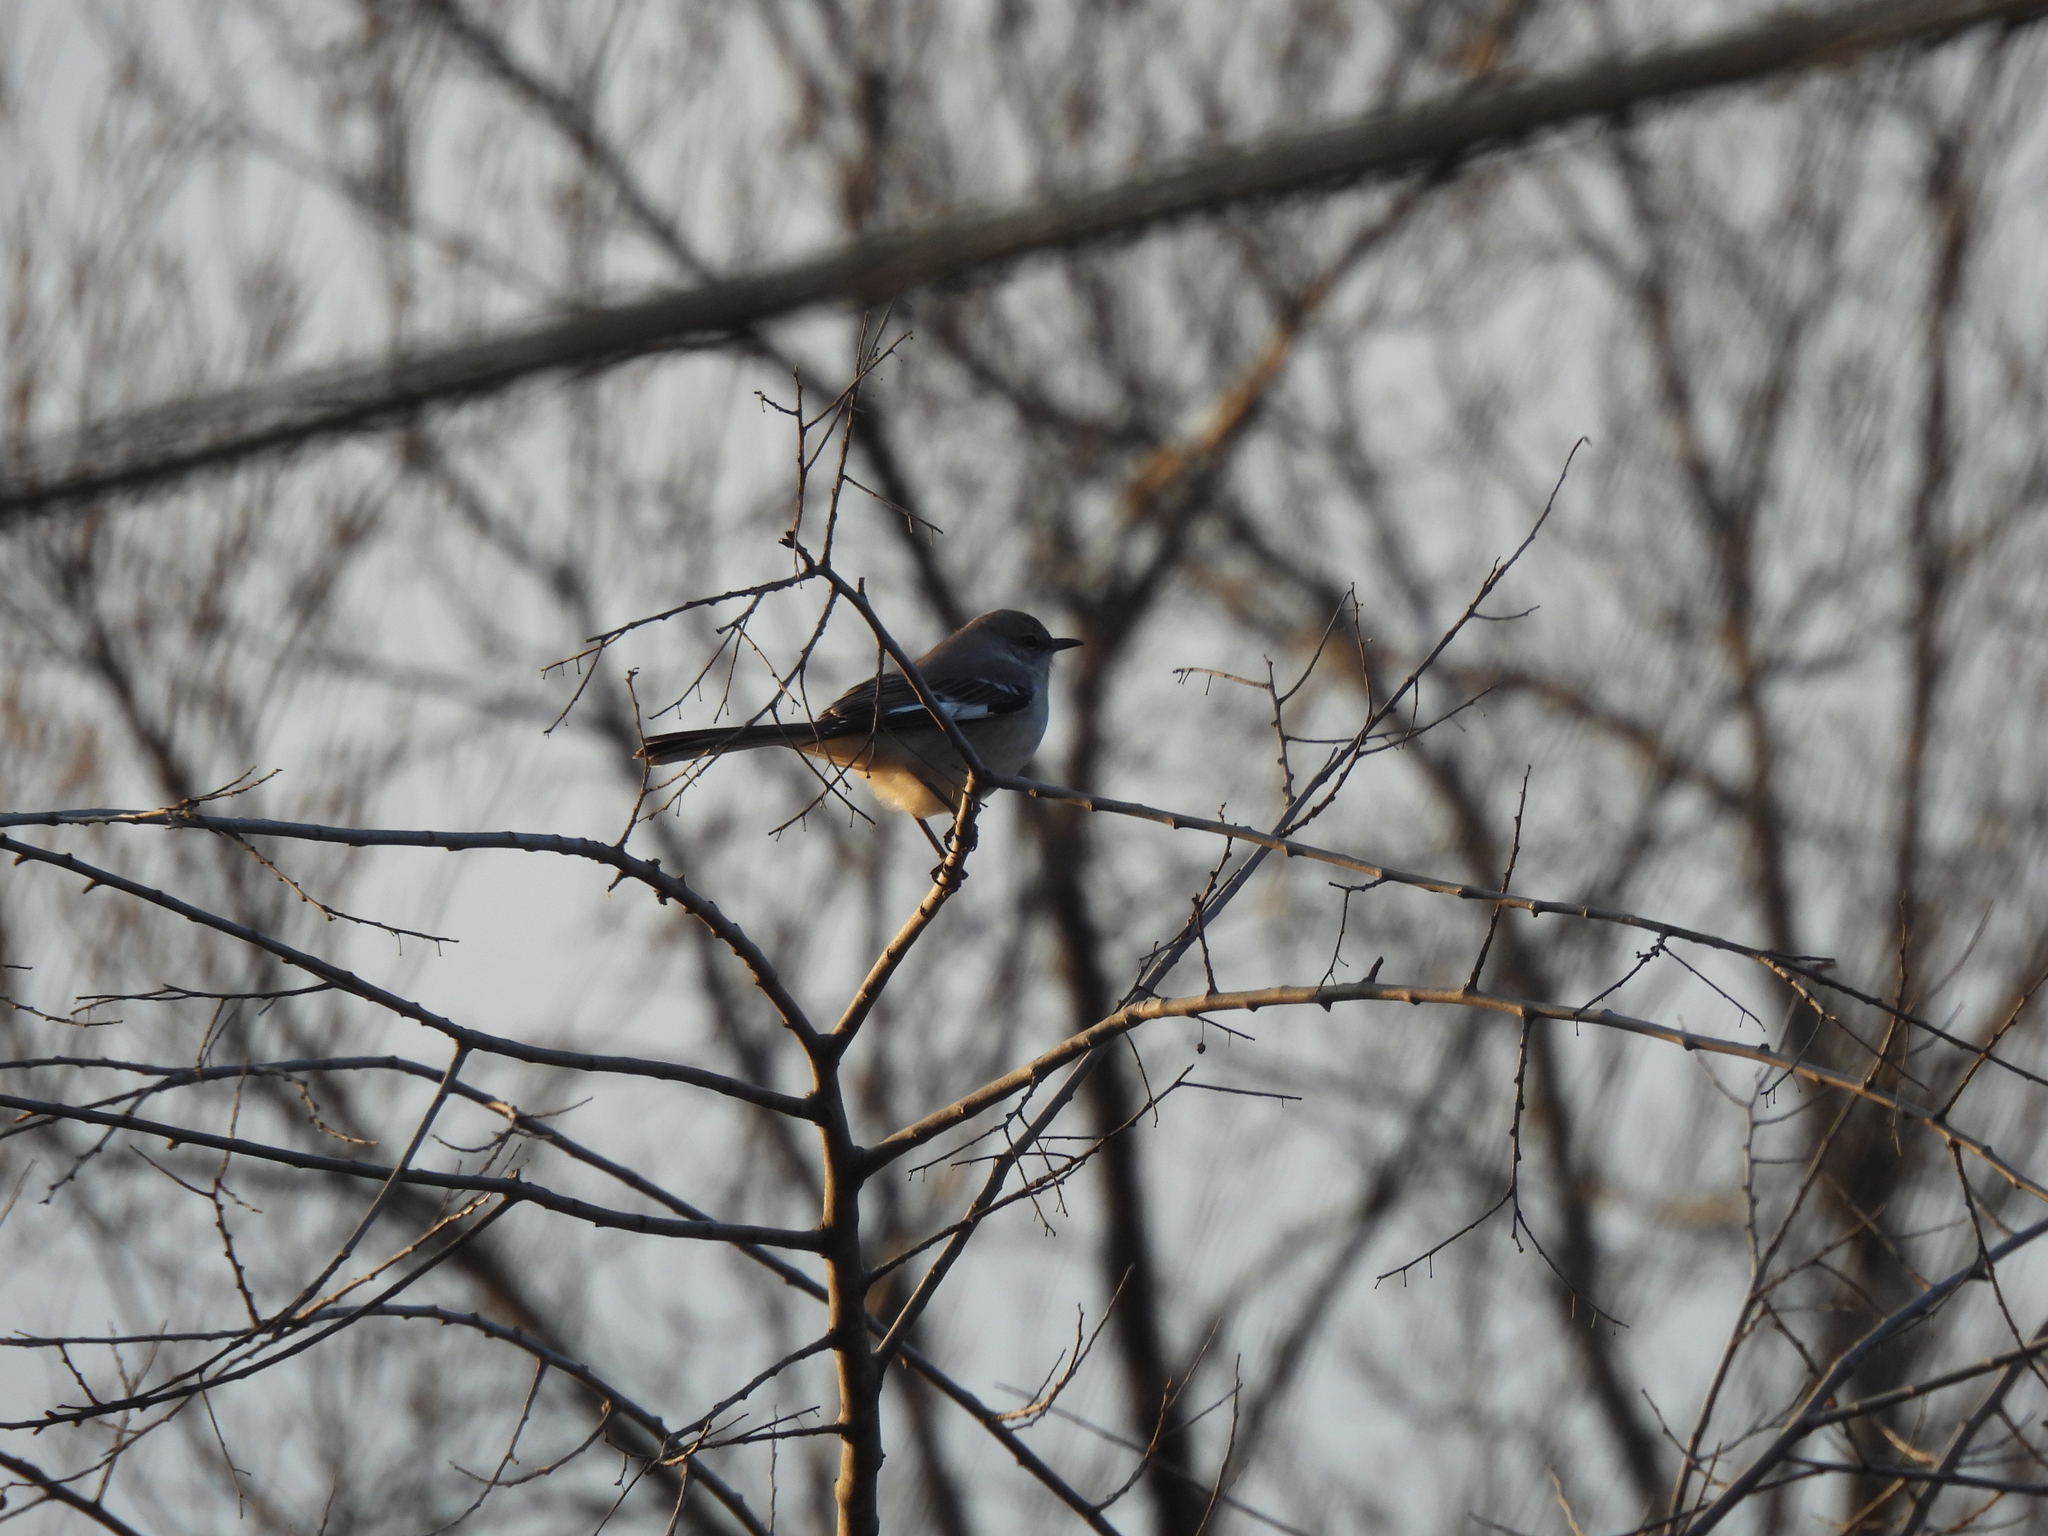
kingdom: Animalia
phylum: Chordata
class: Aves
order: Passeriformes
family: Mimidae
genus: Mimus
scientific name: Mimus polyglottos
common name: Northern mockingbird
